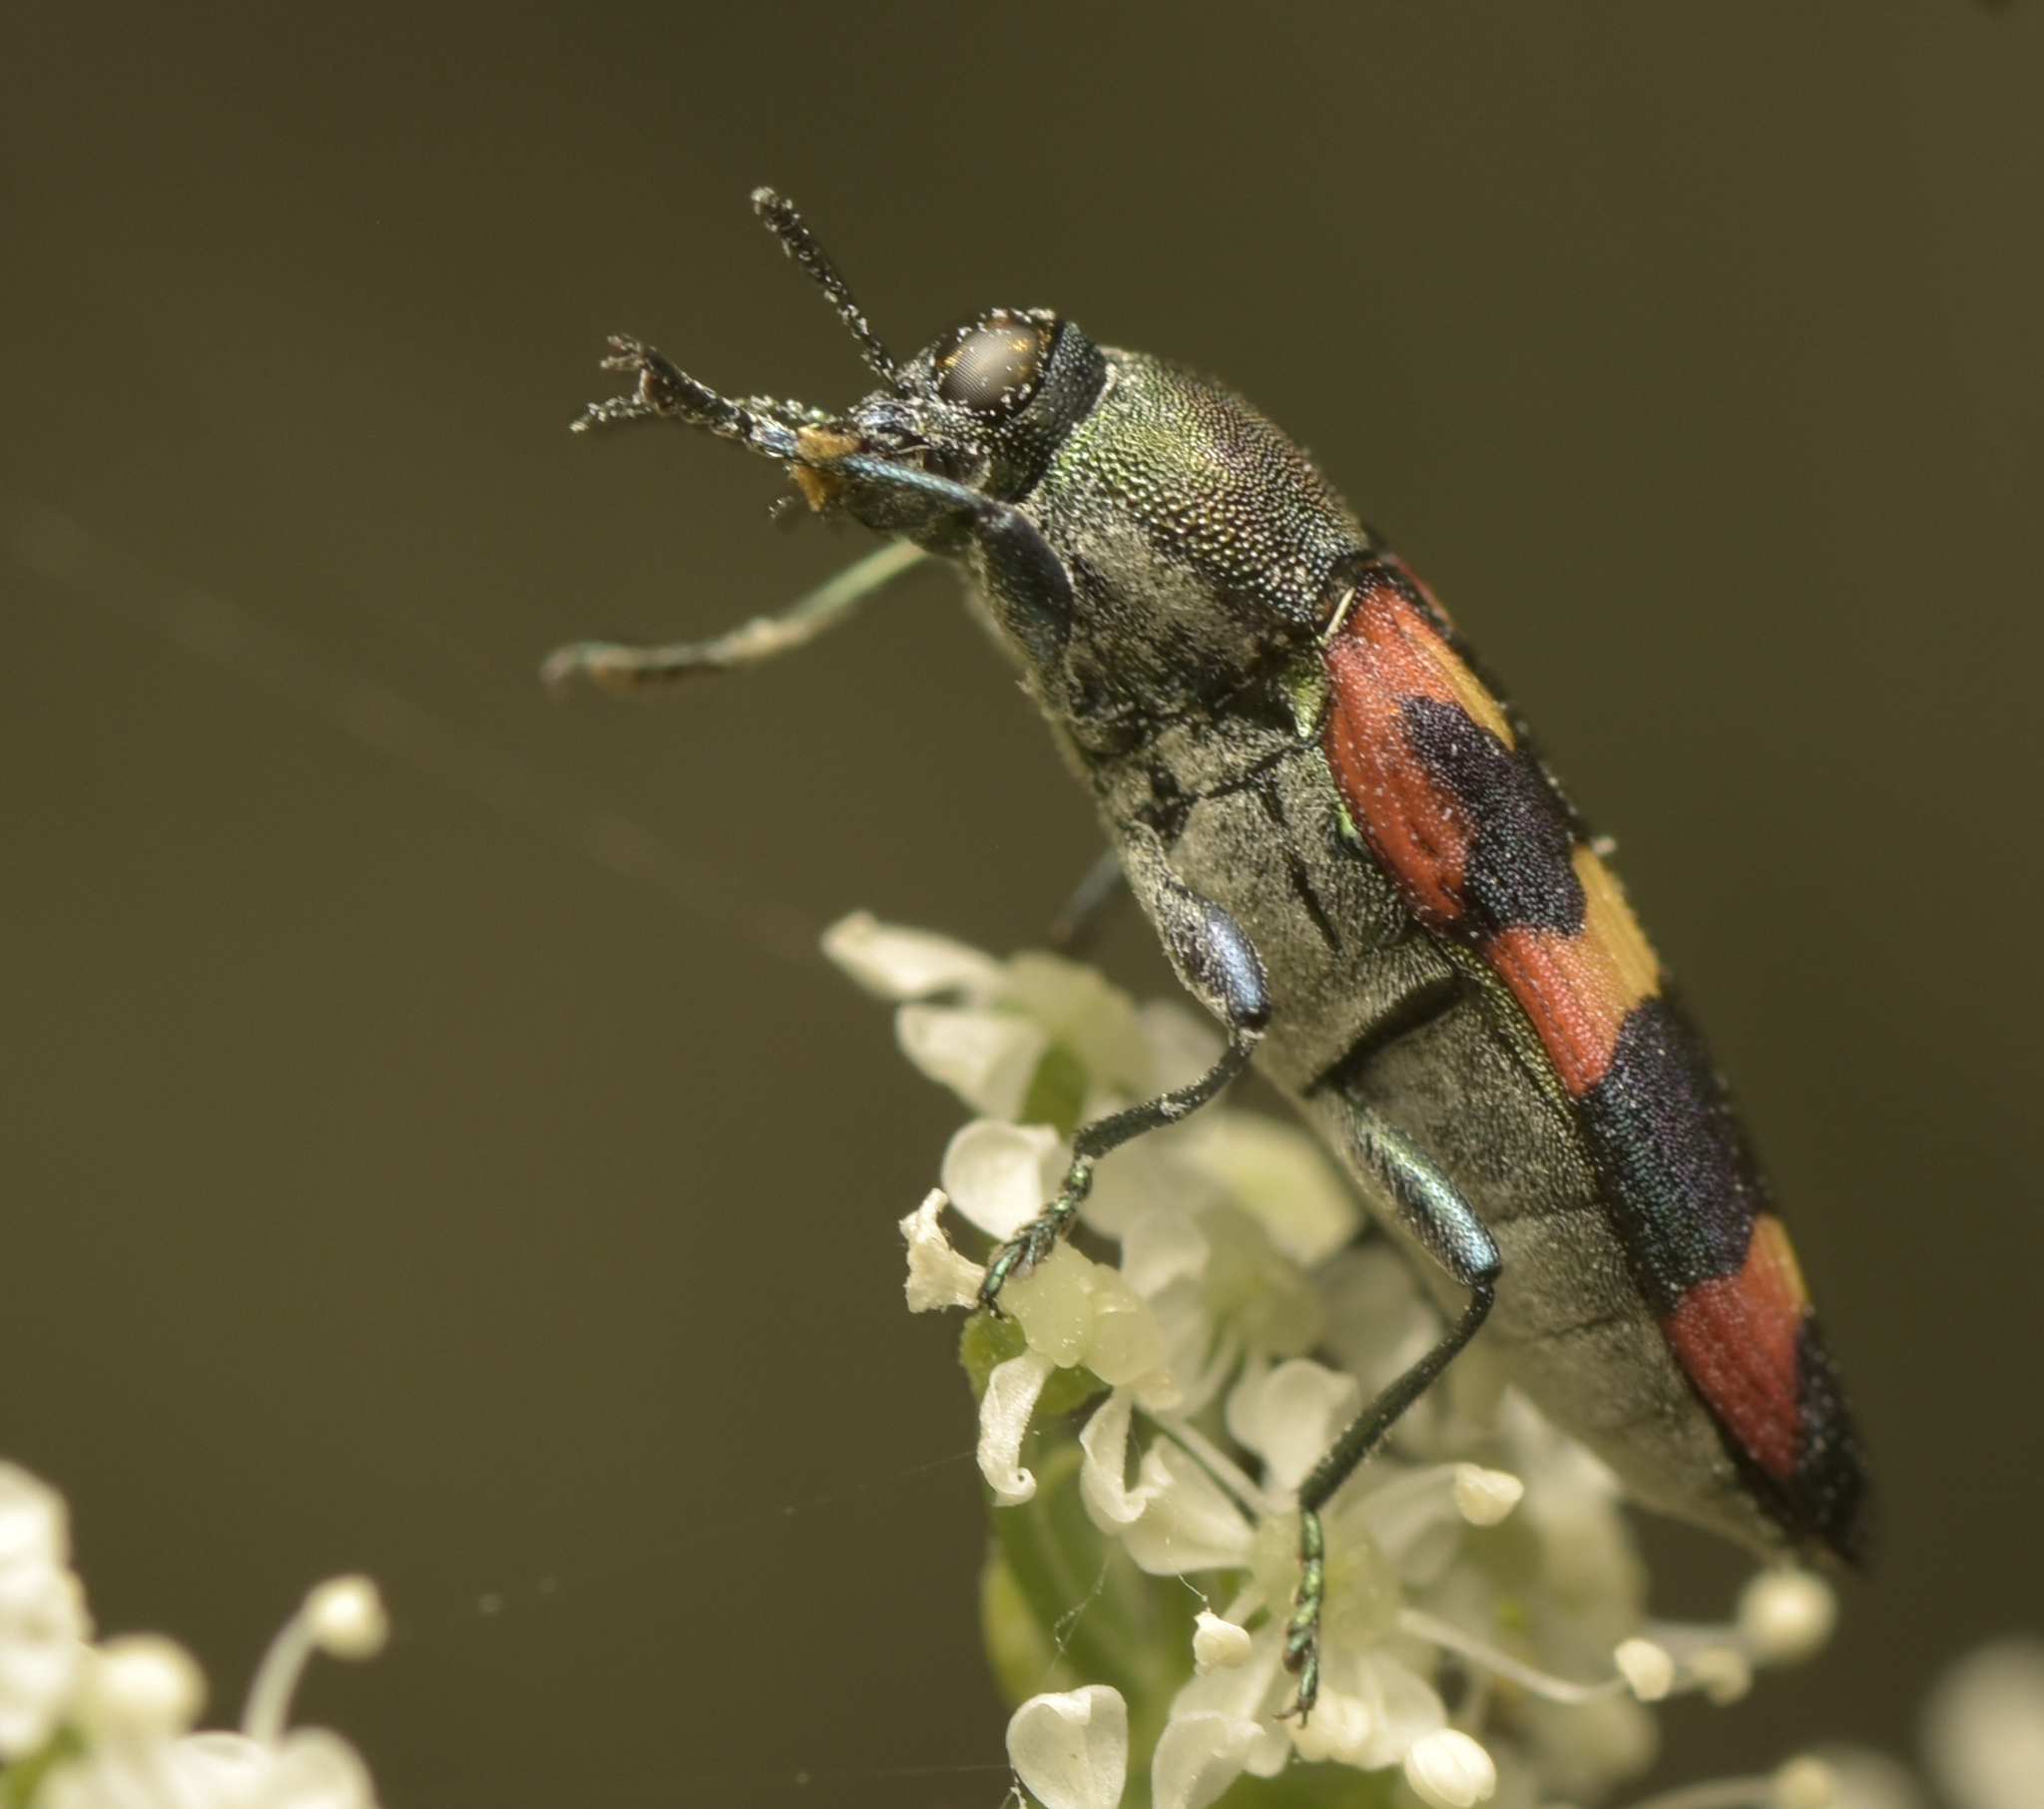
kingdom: Animalia
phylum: Arthropoda
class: Insecta
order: Coleoptera
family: Buprestidae
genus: Castiarina
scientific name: Castiarina sexplagiata
